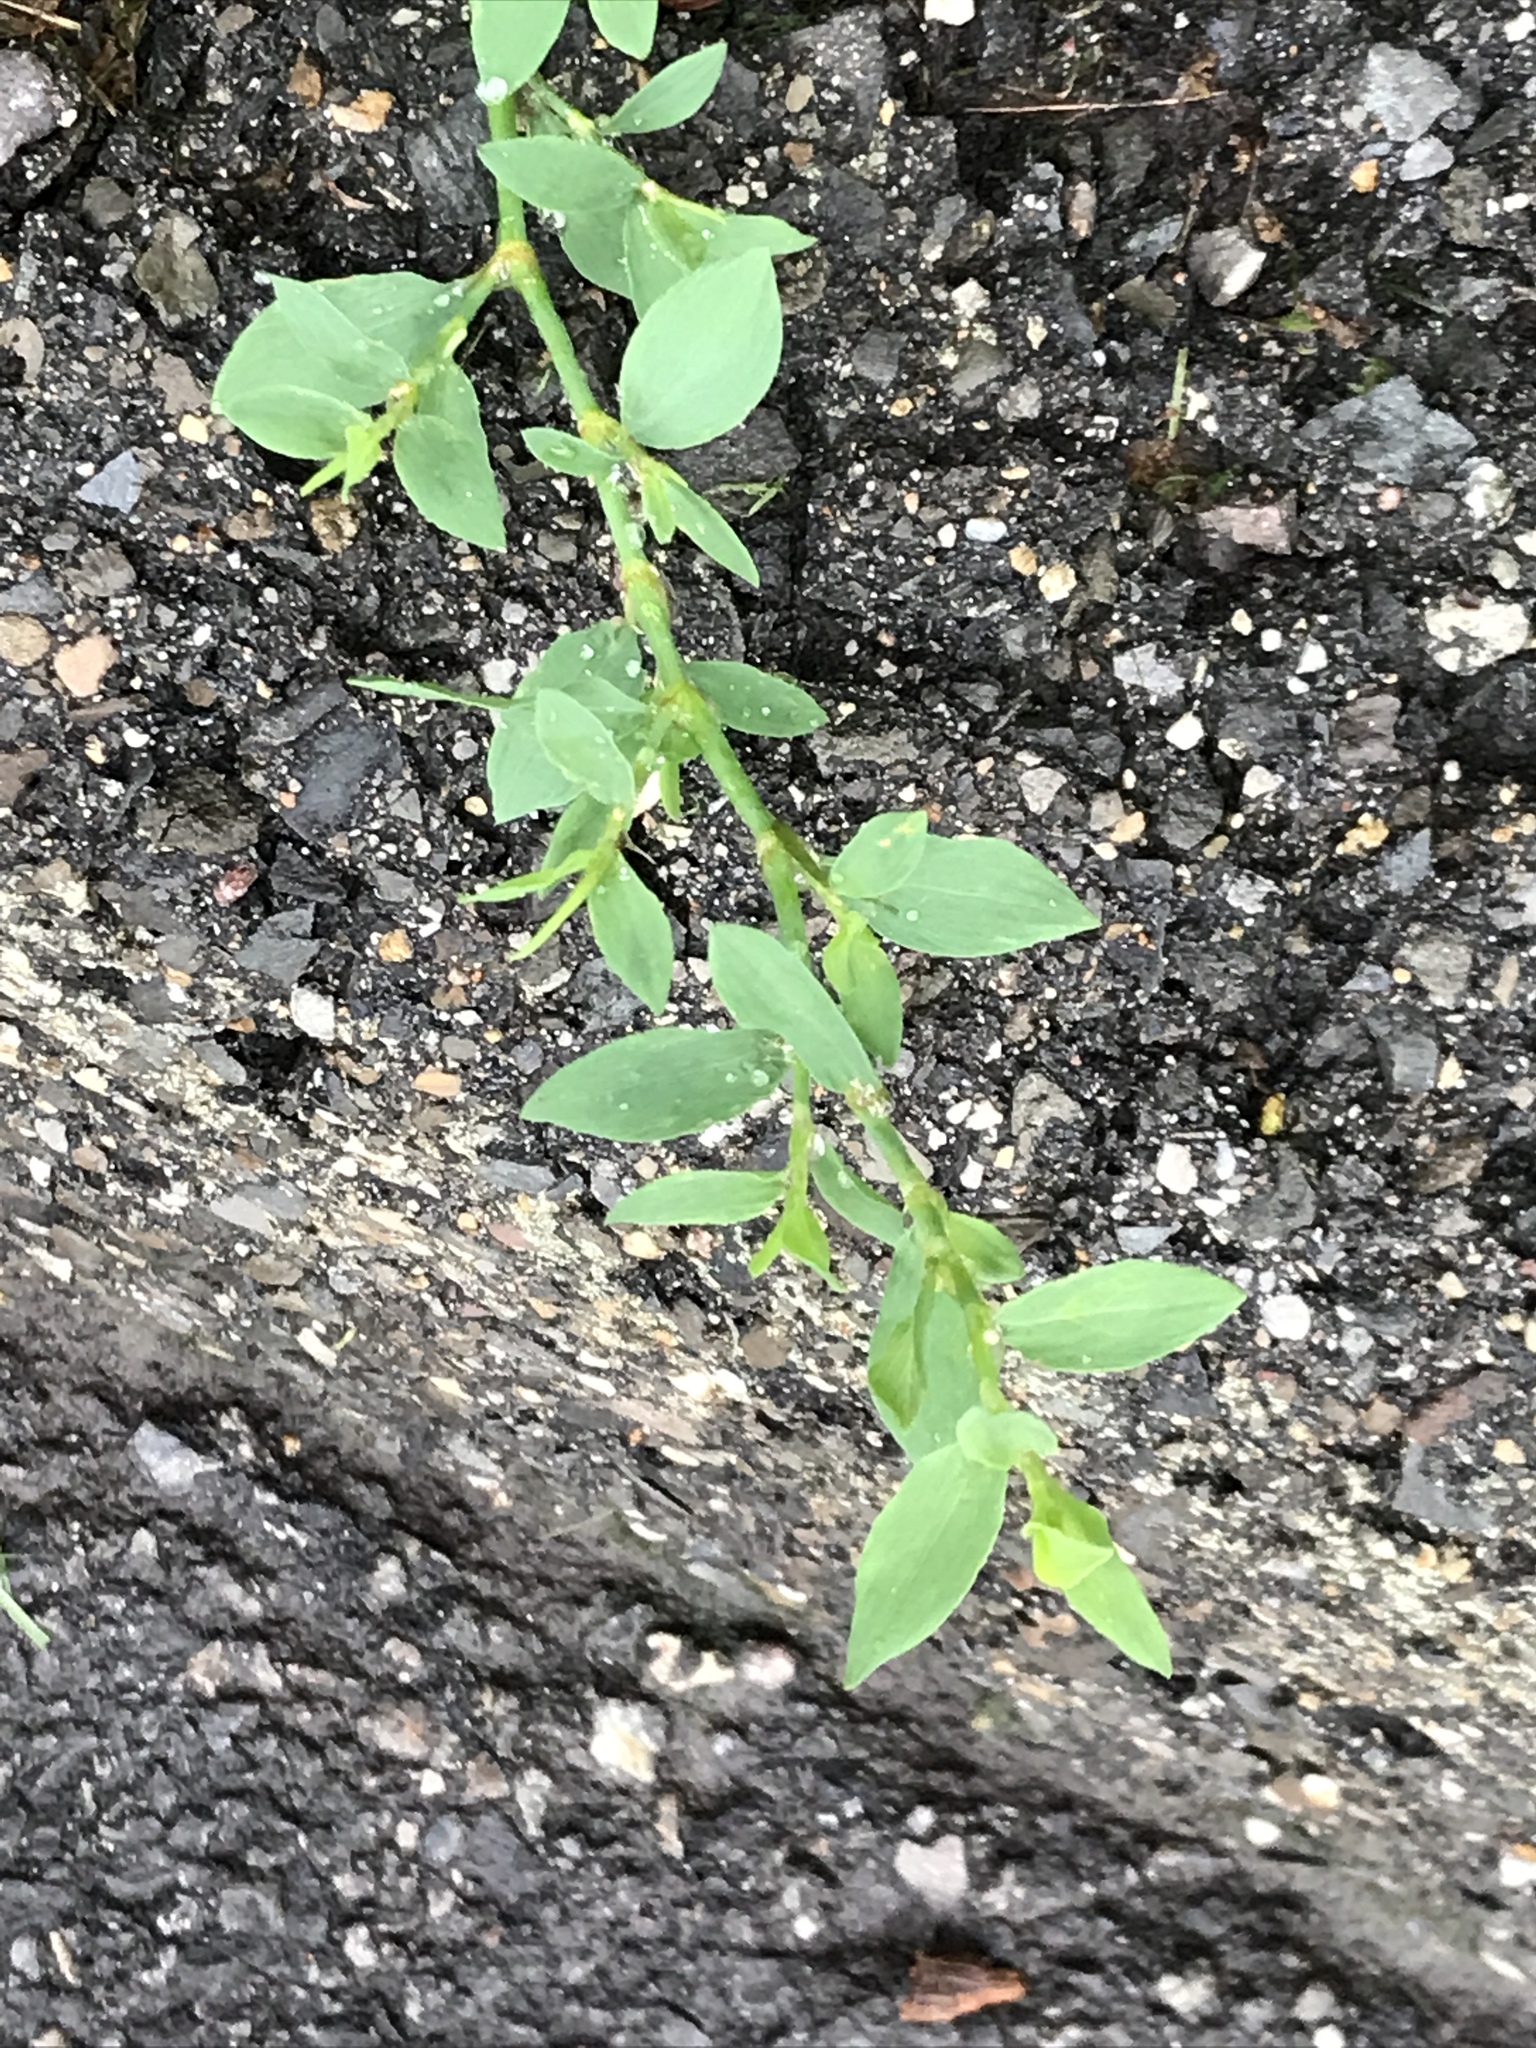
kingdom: Plantae
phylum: Tracheophyta
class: Magnoliopsida
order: Caryophyllales
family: Polygonaceae
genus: Polygonum
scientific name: Polygonum aviculare
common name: Prostrate knotweed
